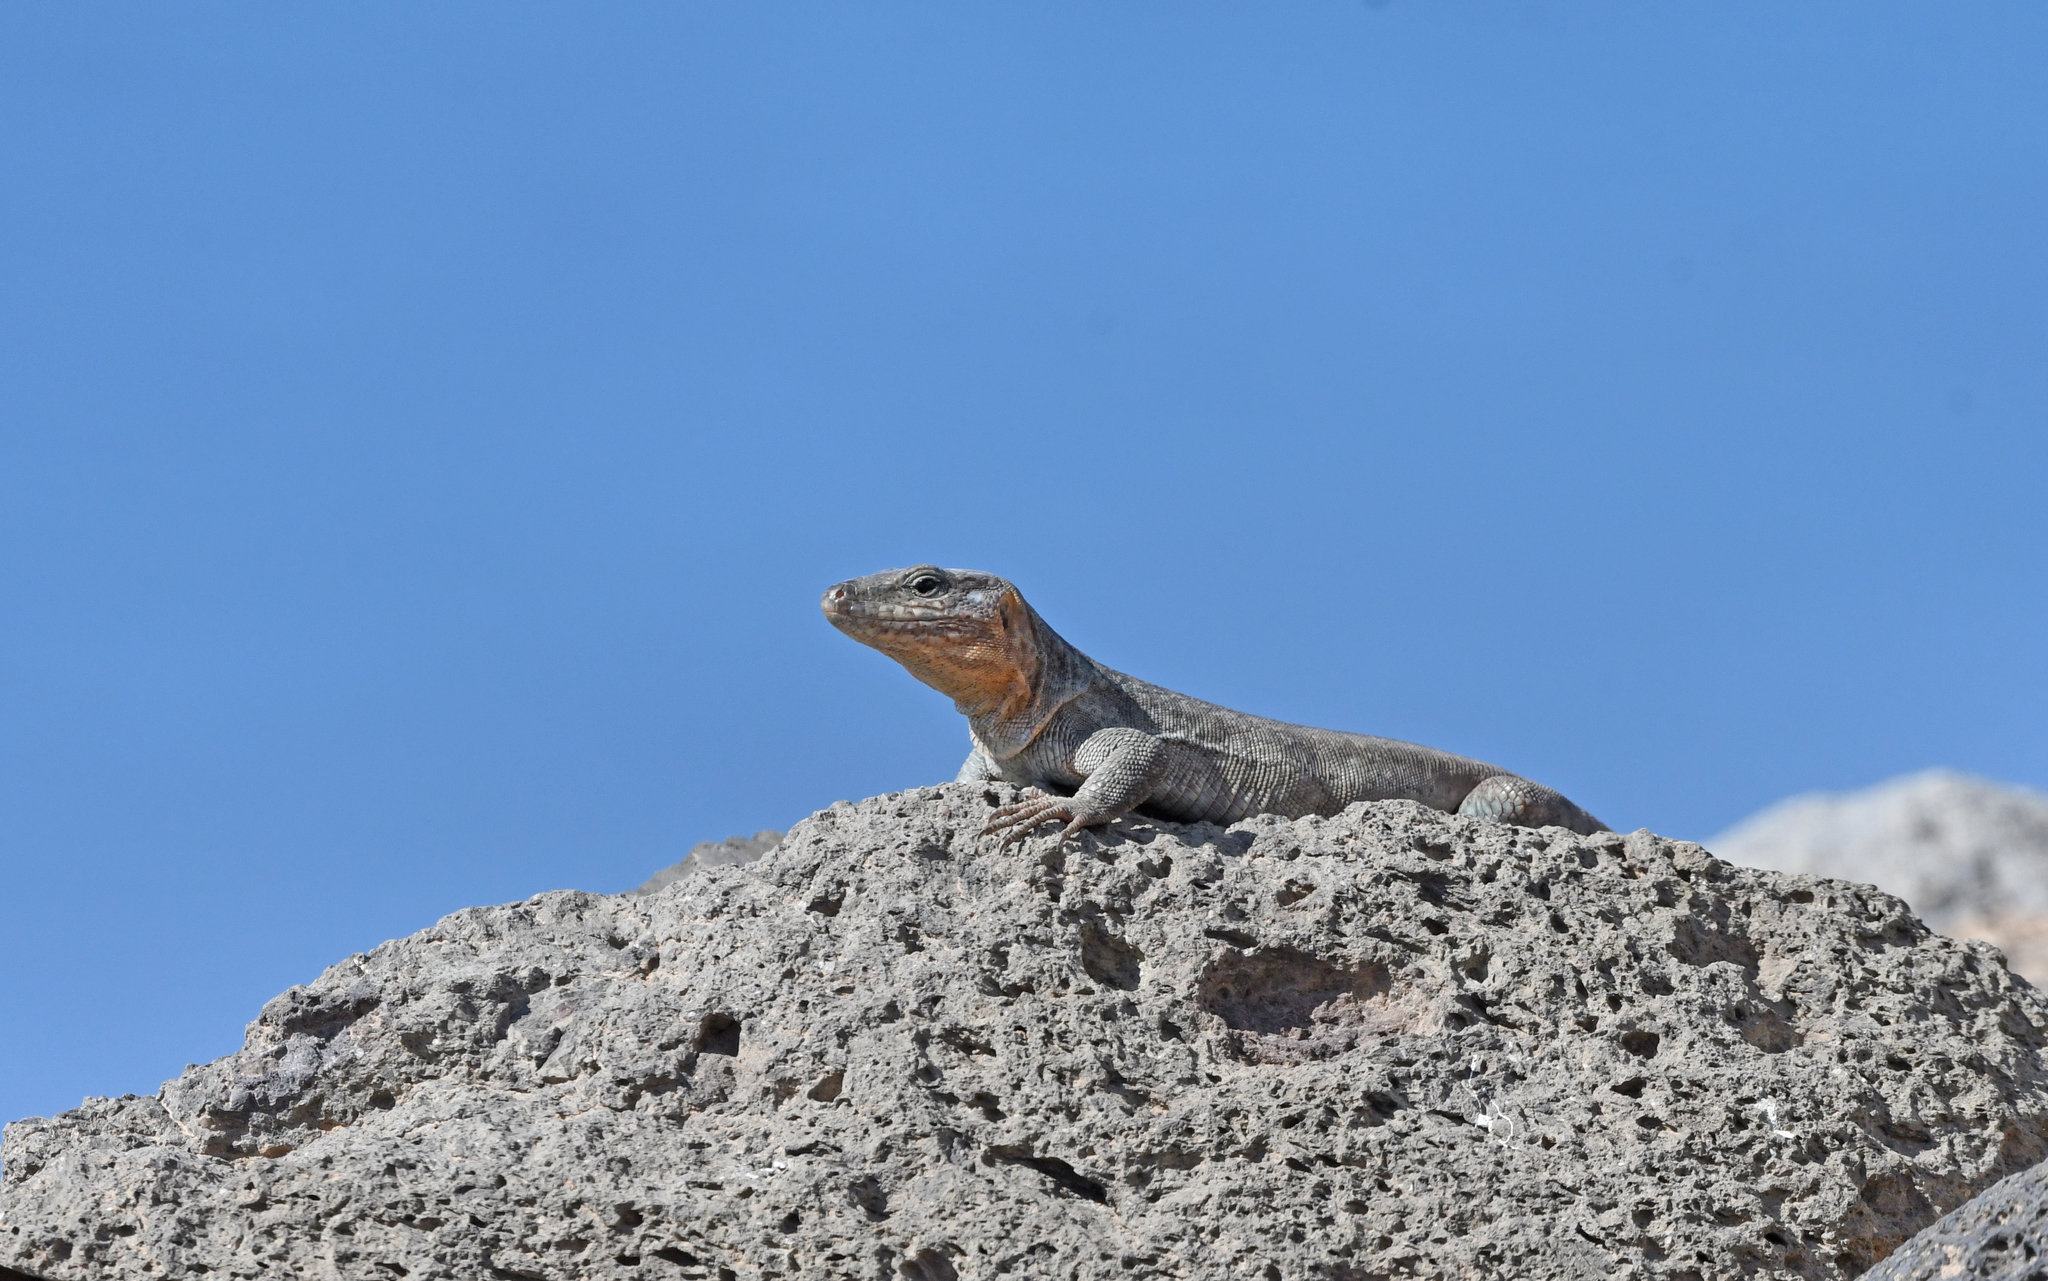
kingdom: Animalia
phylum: Chordata
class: Squamata
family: Lacertidae
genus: Gallotia
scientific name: Gallotia stehlini
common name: Gran canaria giant lizard
